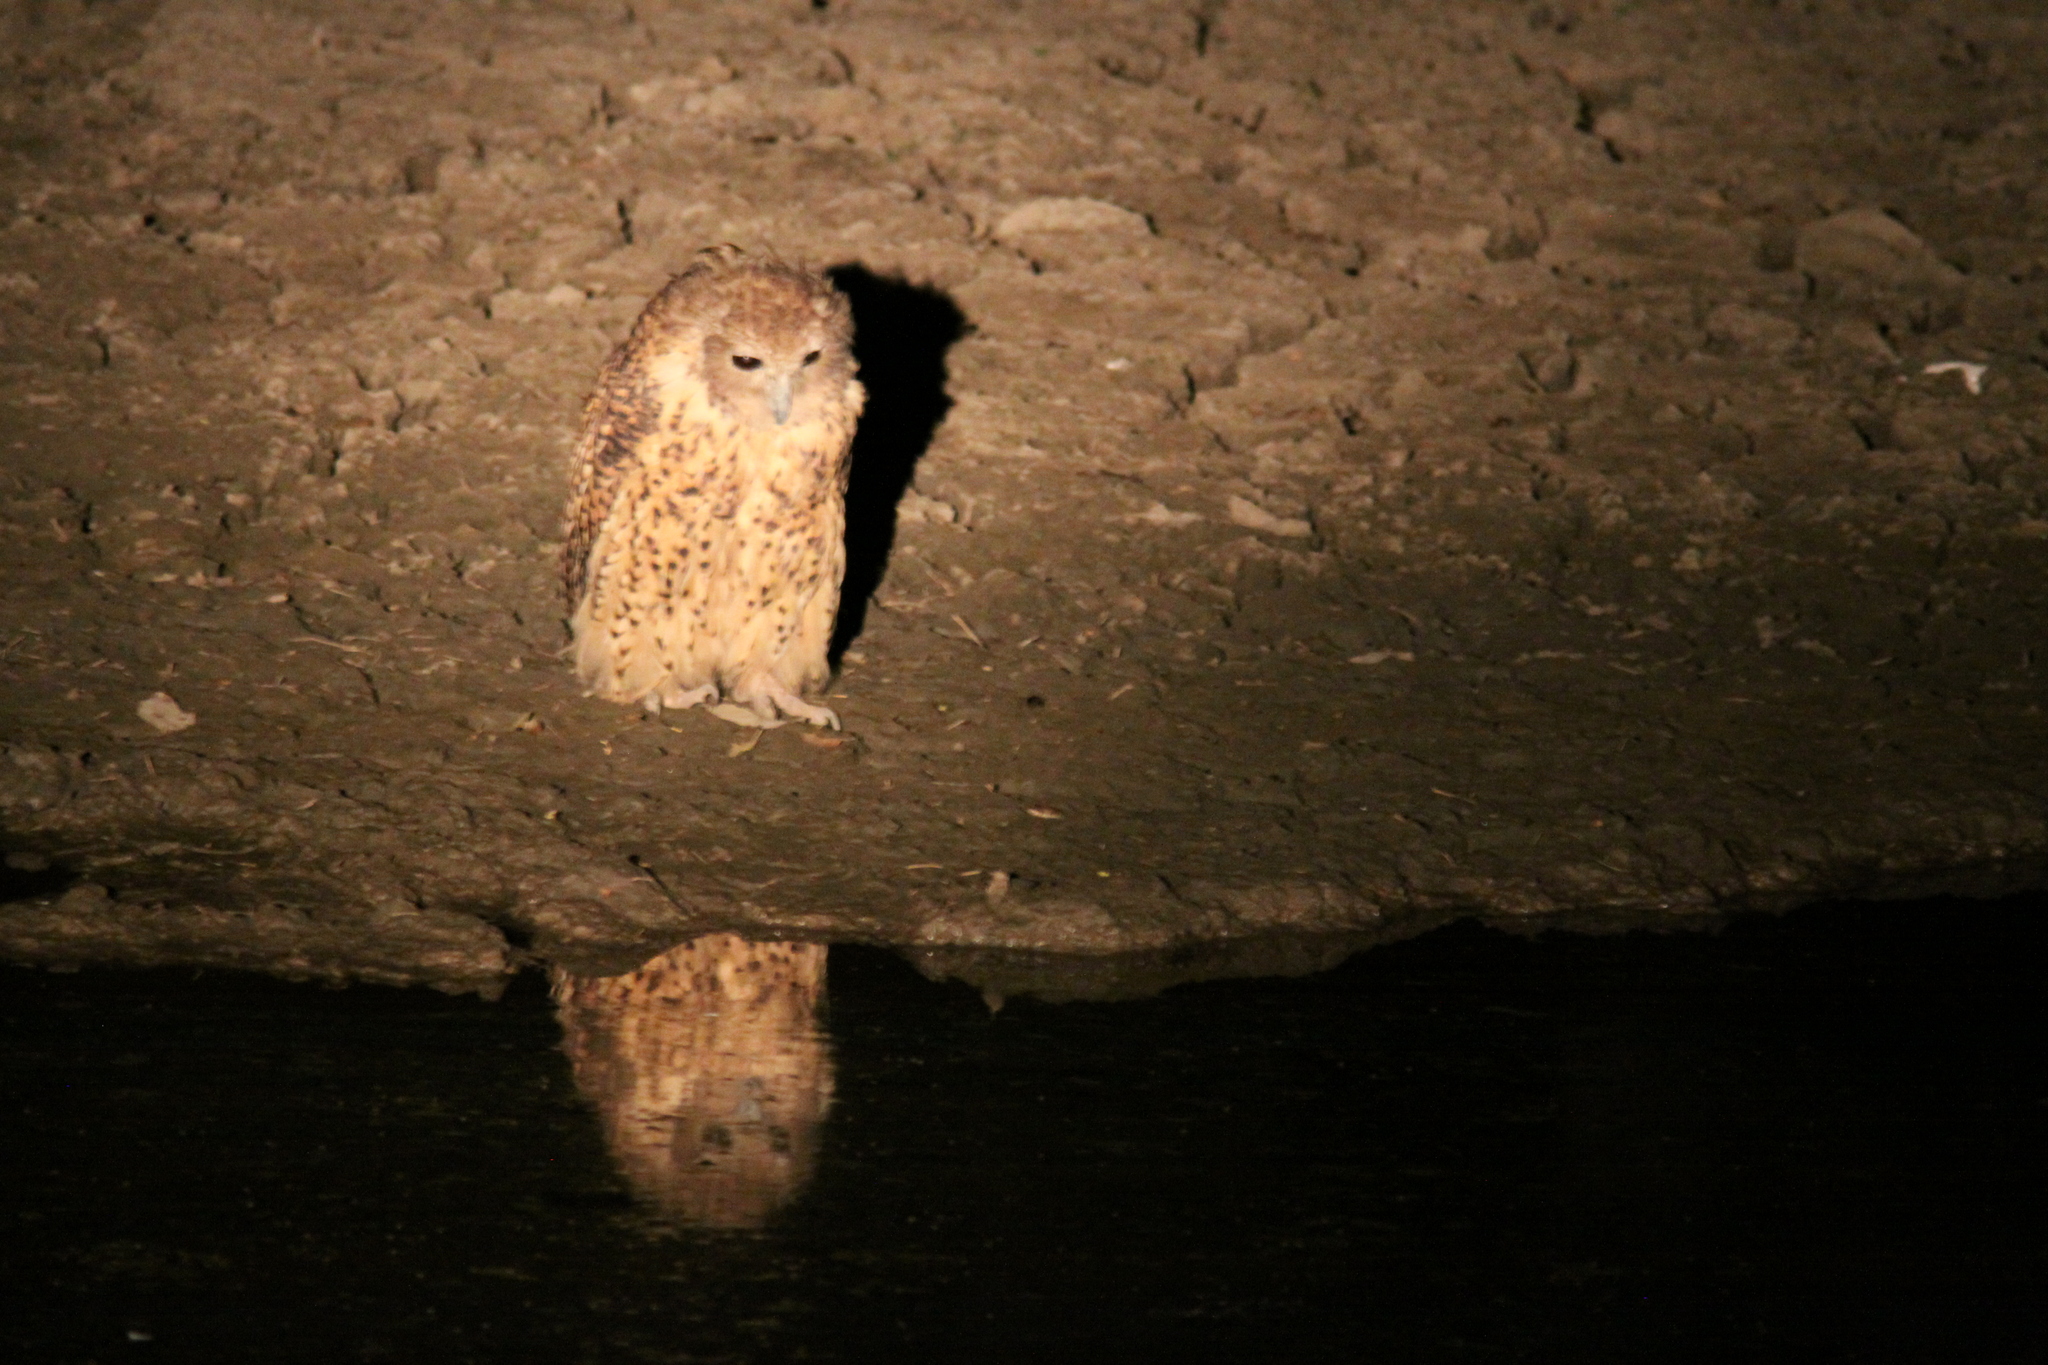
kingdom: Animalia
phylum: Chordata
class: Aves
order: Strigiformes
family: Strigidae
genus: Scotopelia
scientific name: Scotopelia peli
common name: Pel's fishing owl
